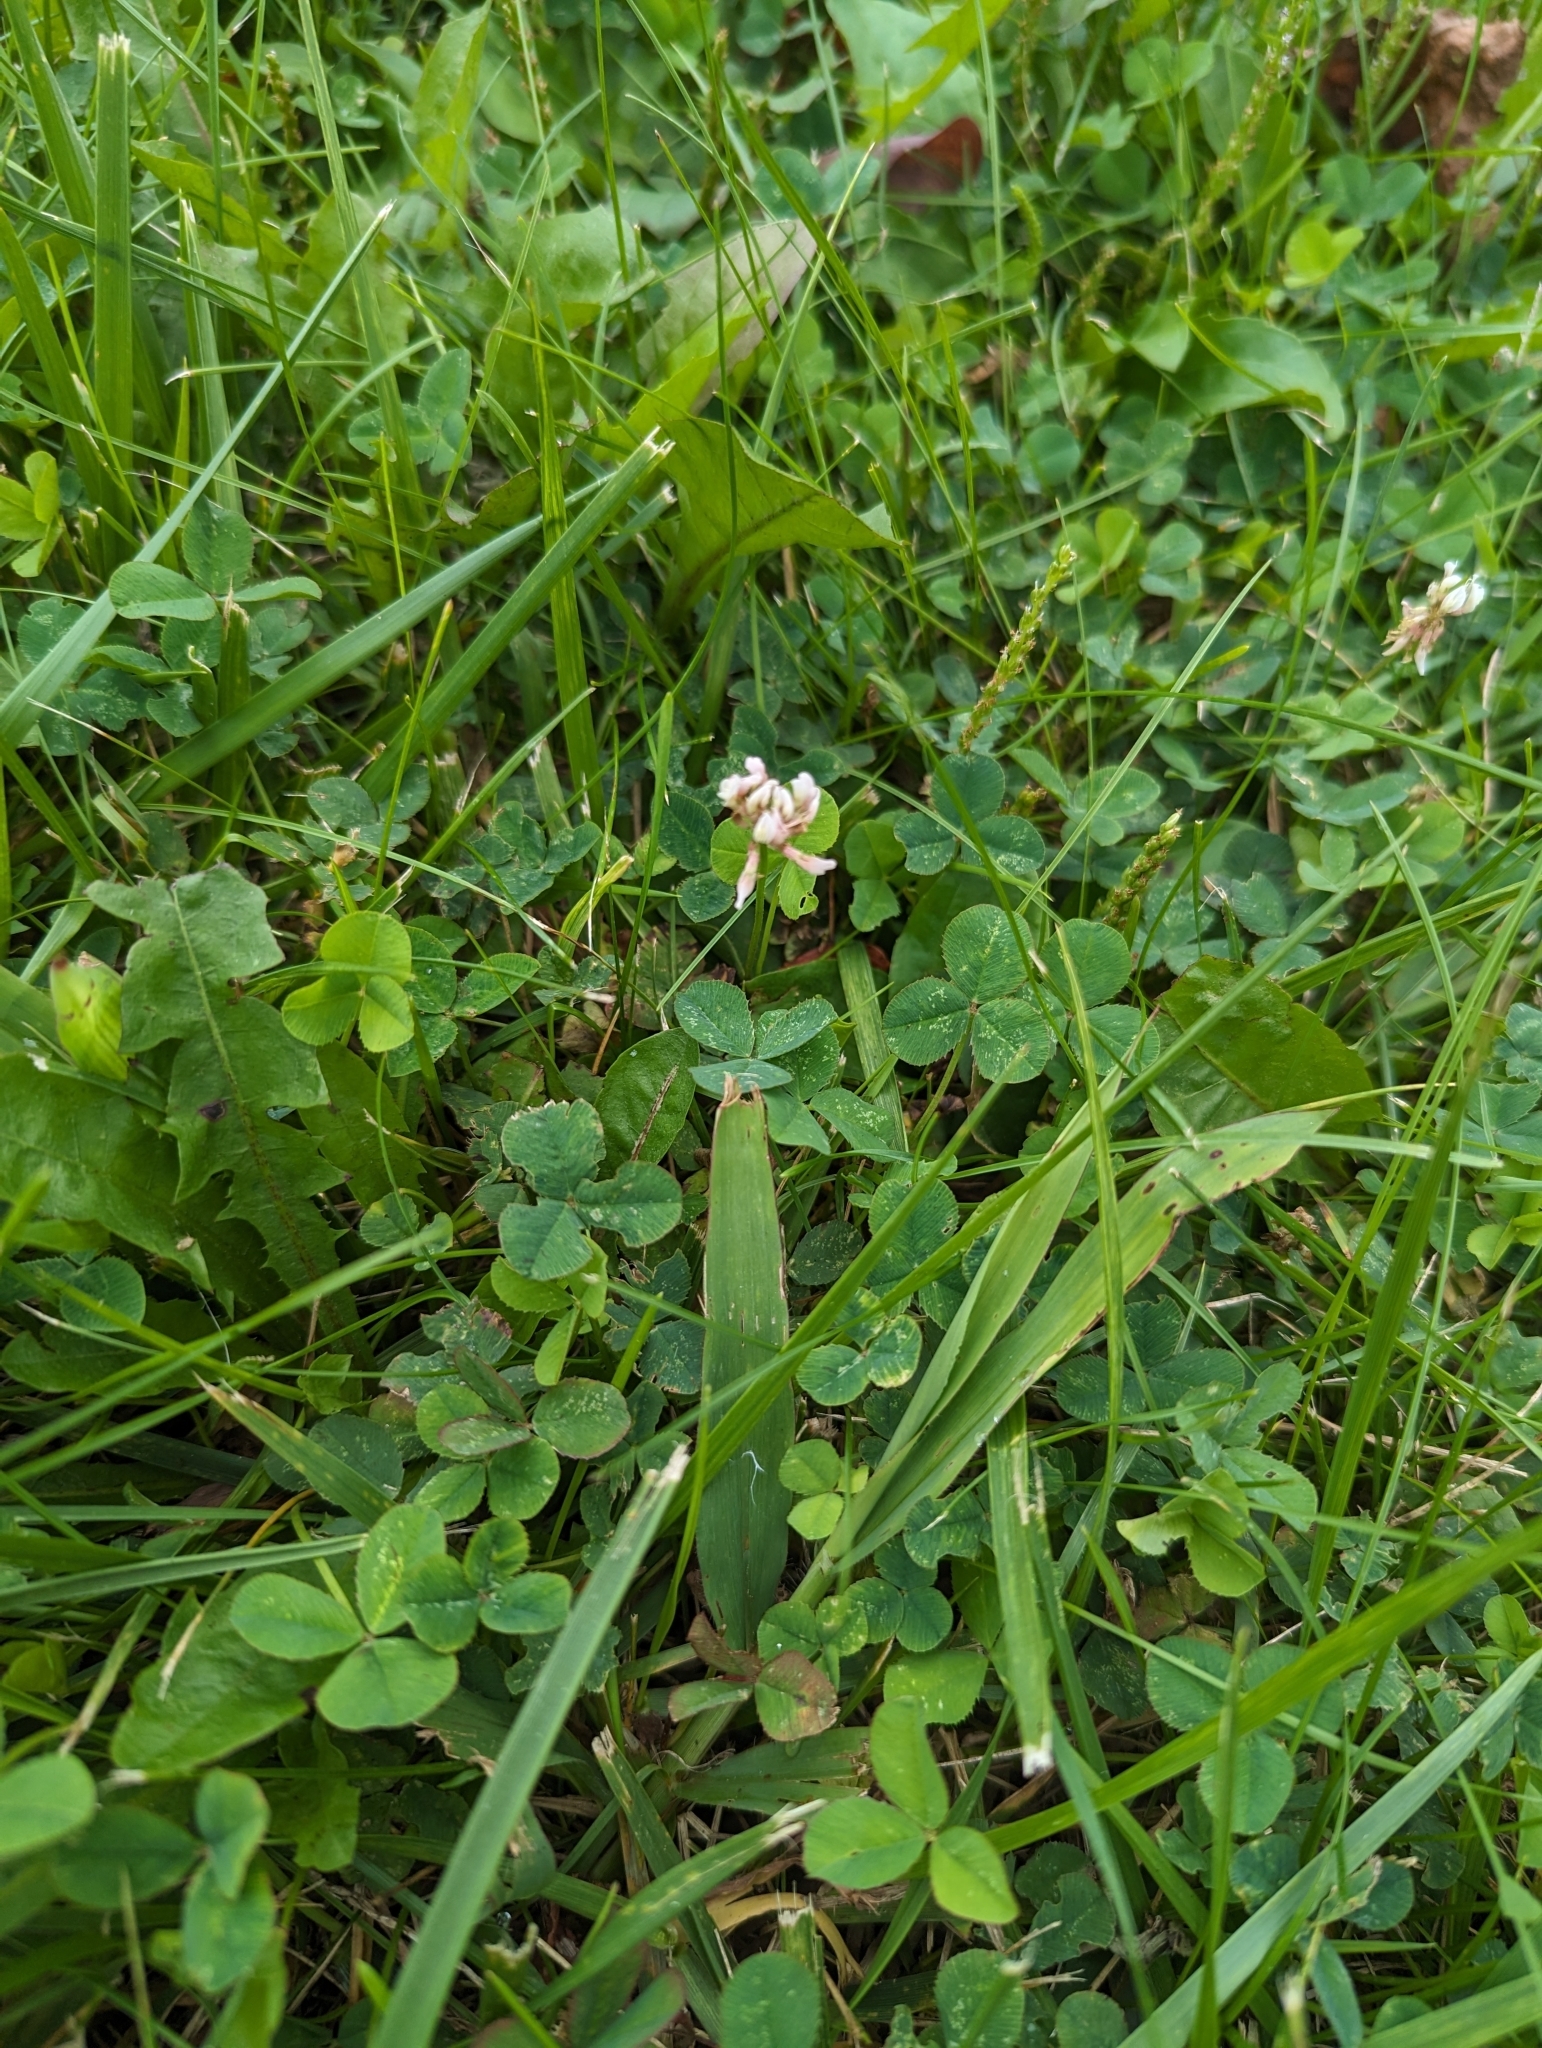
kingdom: Plantae
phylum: Tracheophyta
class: Magnoliopsida
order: Fabales
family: Fabaceae
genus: Trifolium
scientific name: Trifolium repens
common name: White clover
